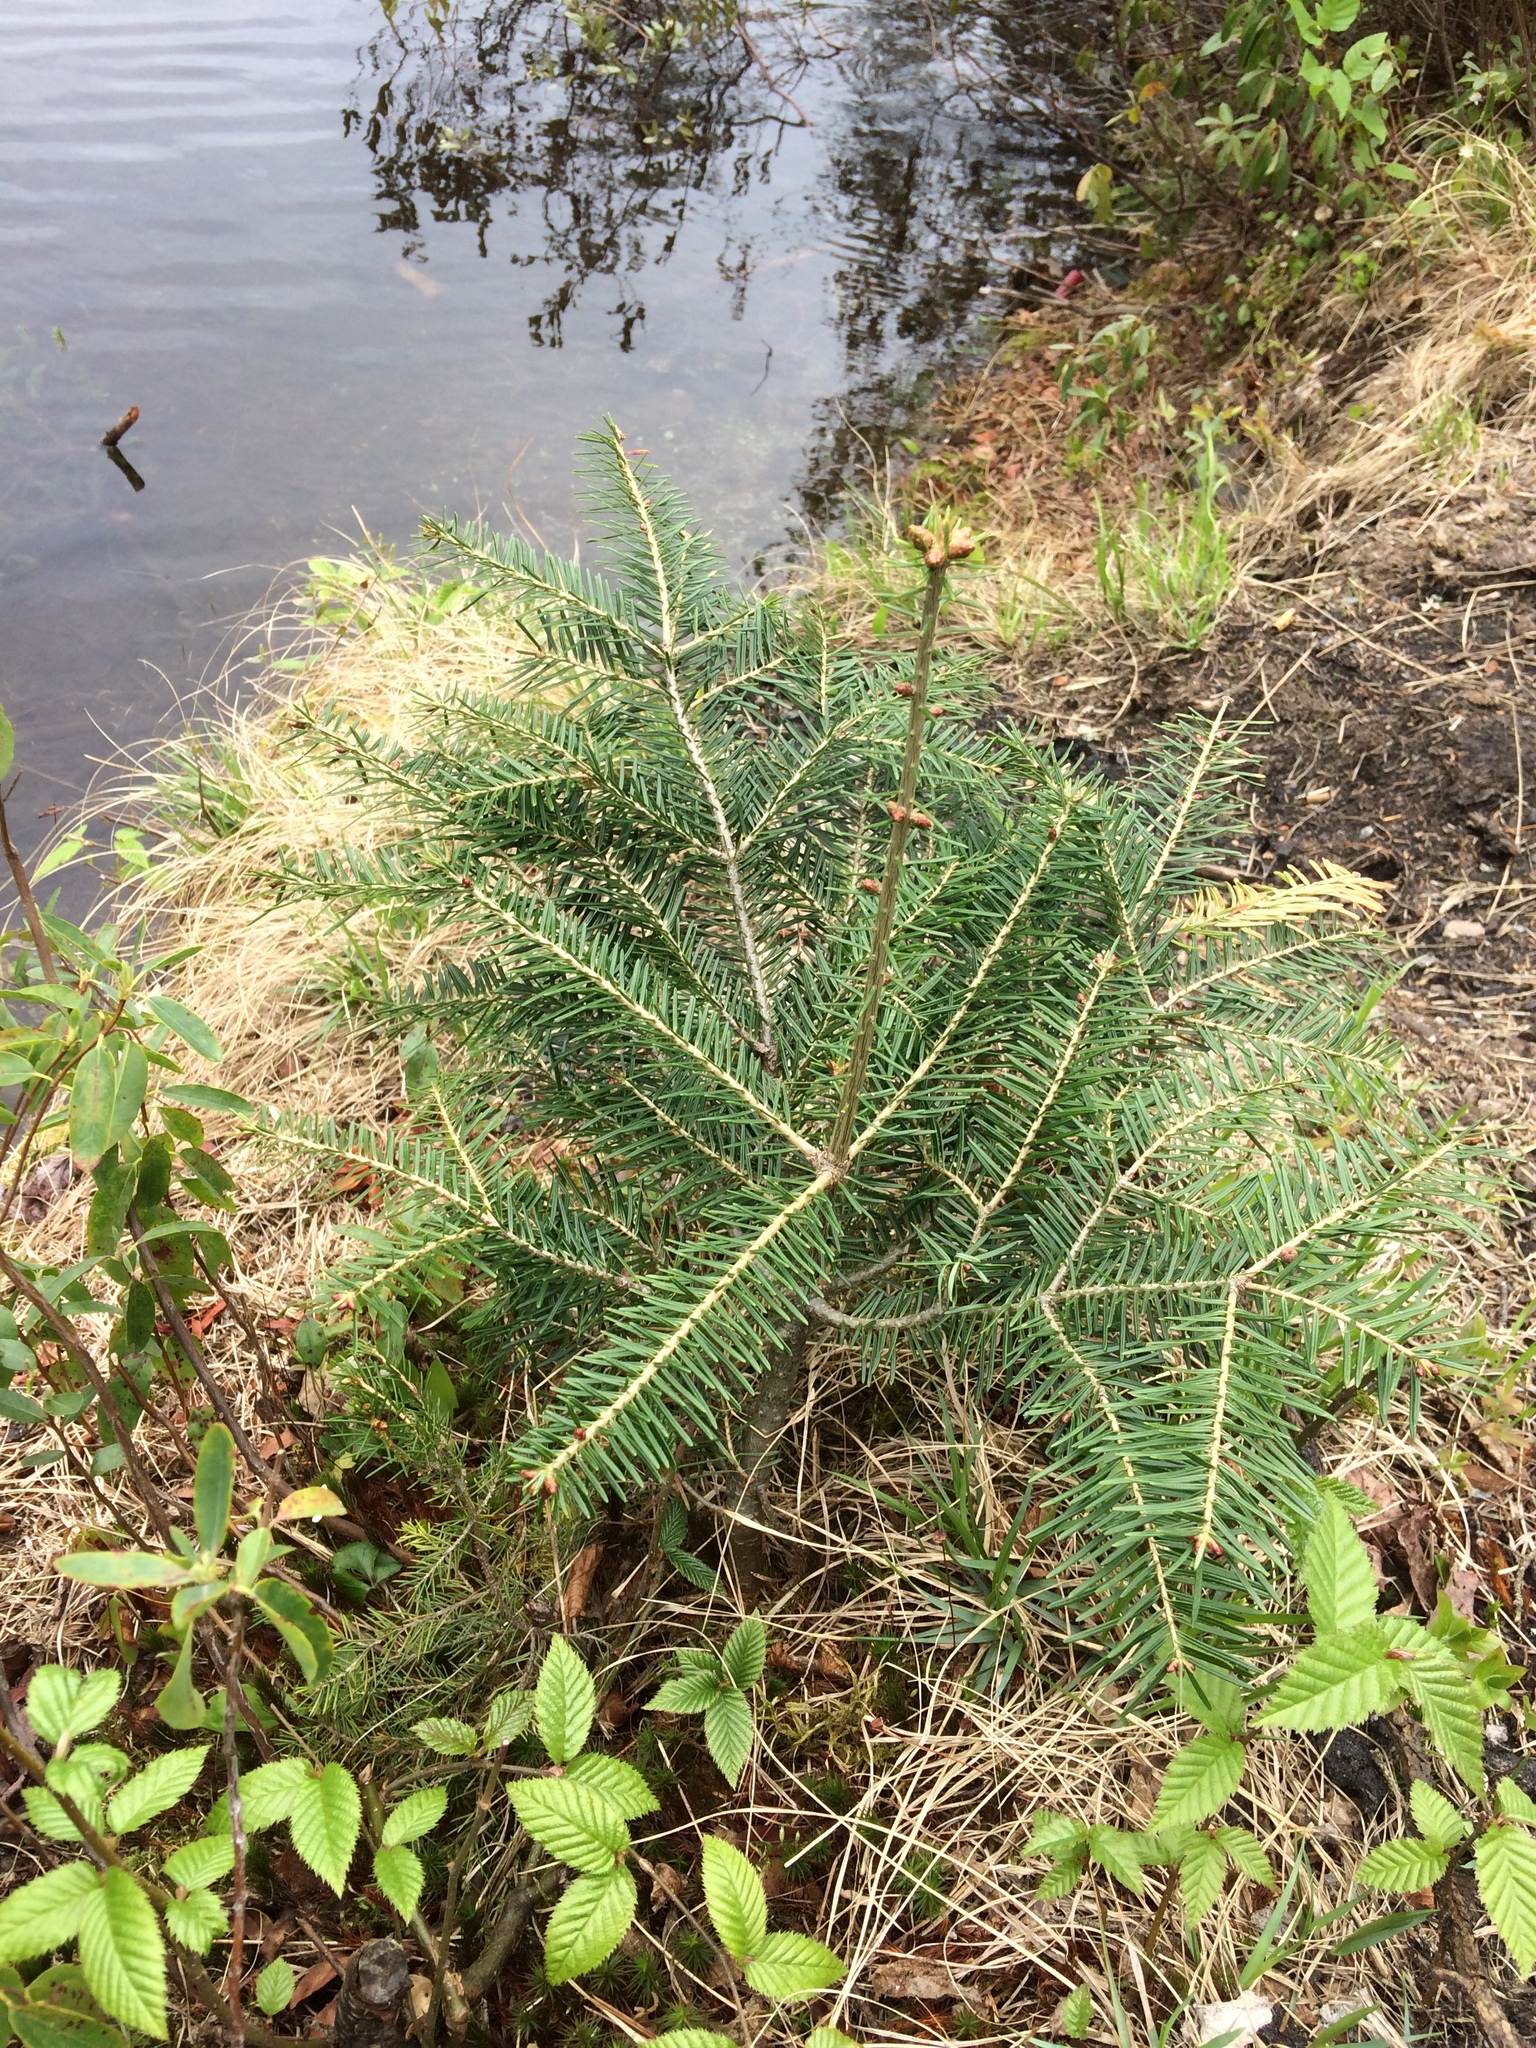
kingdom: Plantae
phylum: Tracheophyta
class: Pinopsida
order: Pinales
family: Pinaceae
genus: Abies
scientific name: Abies balsamea
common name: Balsam fir
